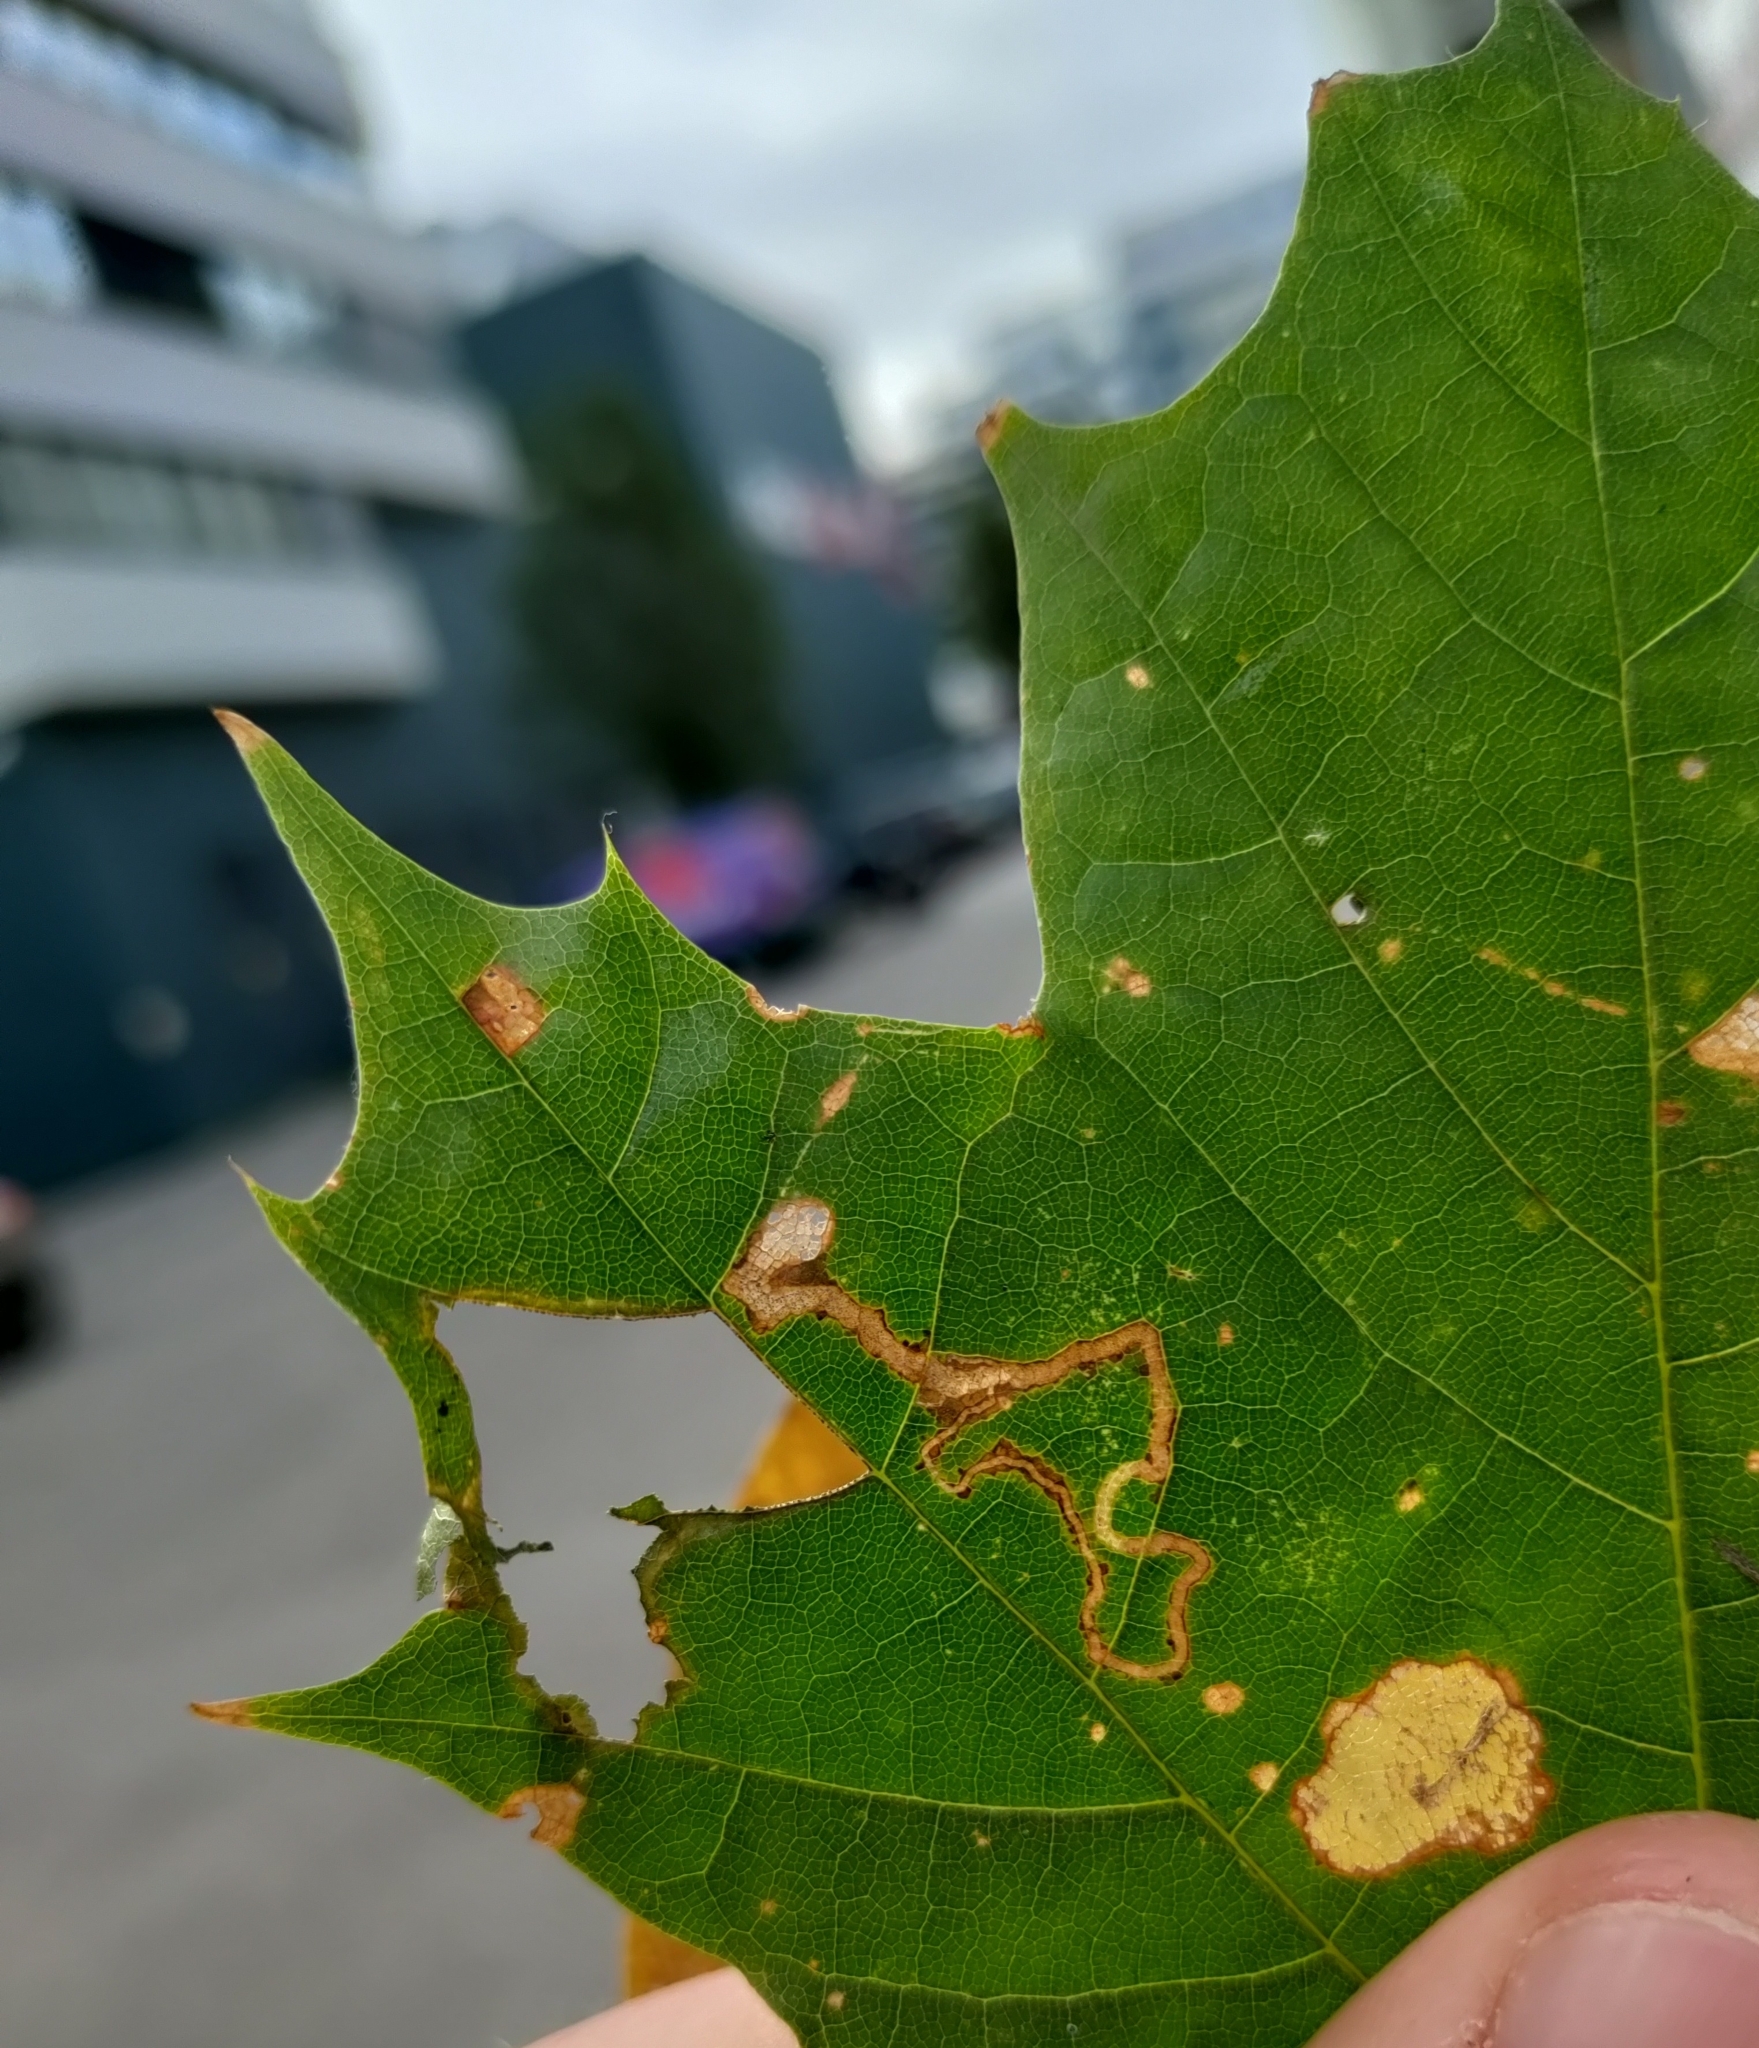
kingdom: Animalia
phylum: Arthropoda
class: Insecta
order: Lepidoptera
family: Nepticulidae
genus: Stigmella
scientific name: Stigmella aceris
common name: Scarce maple pigmy
